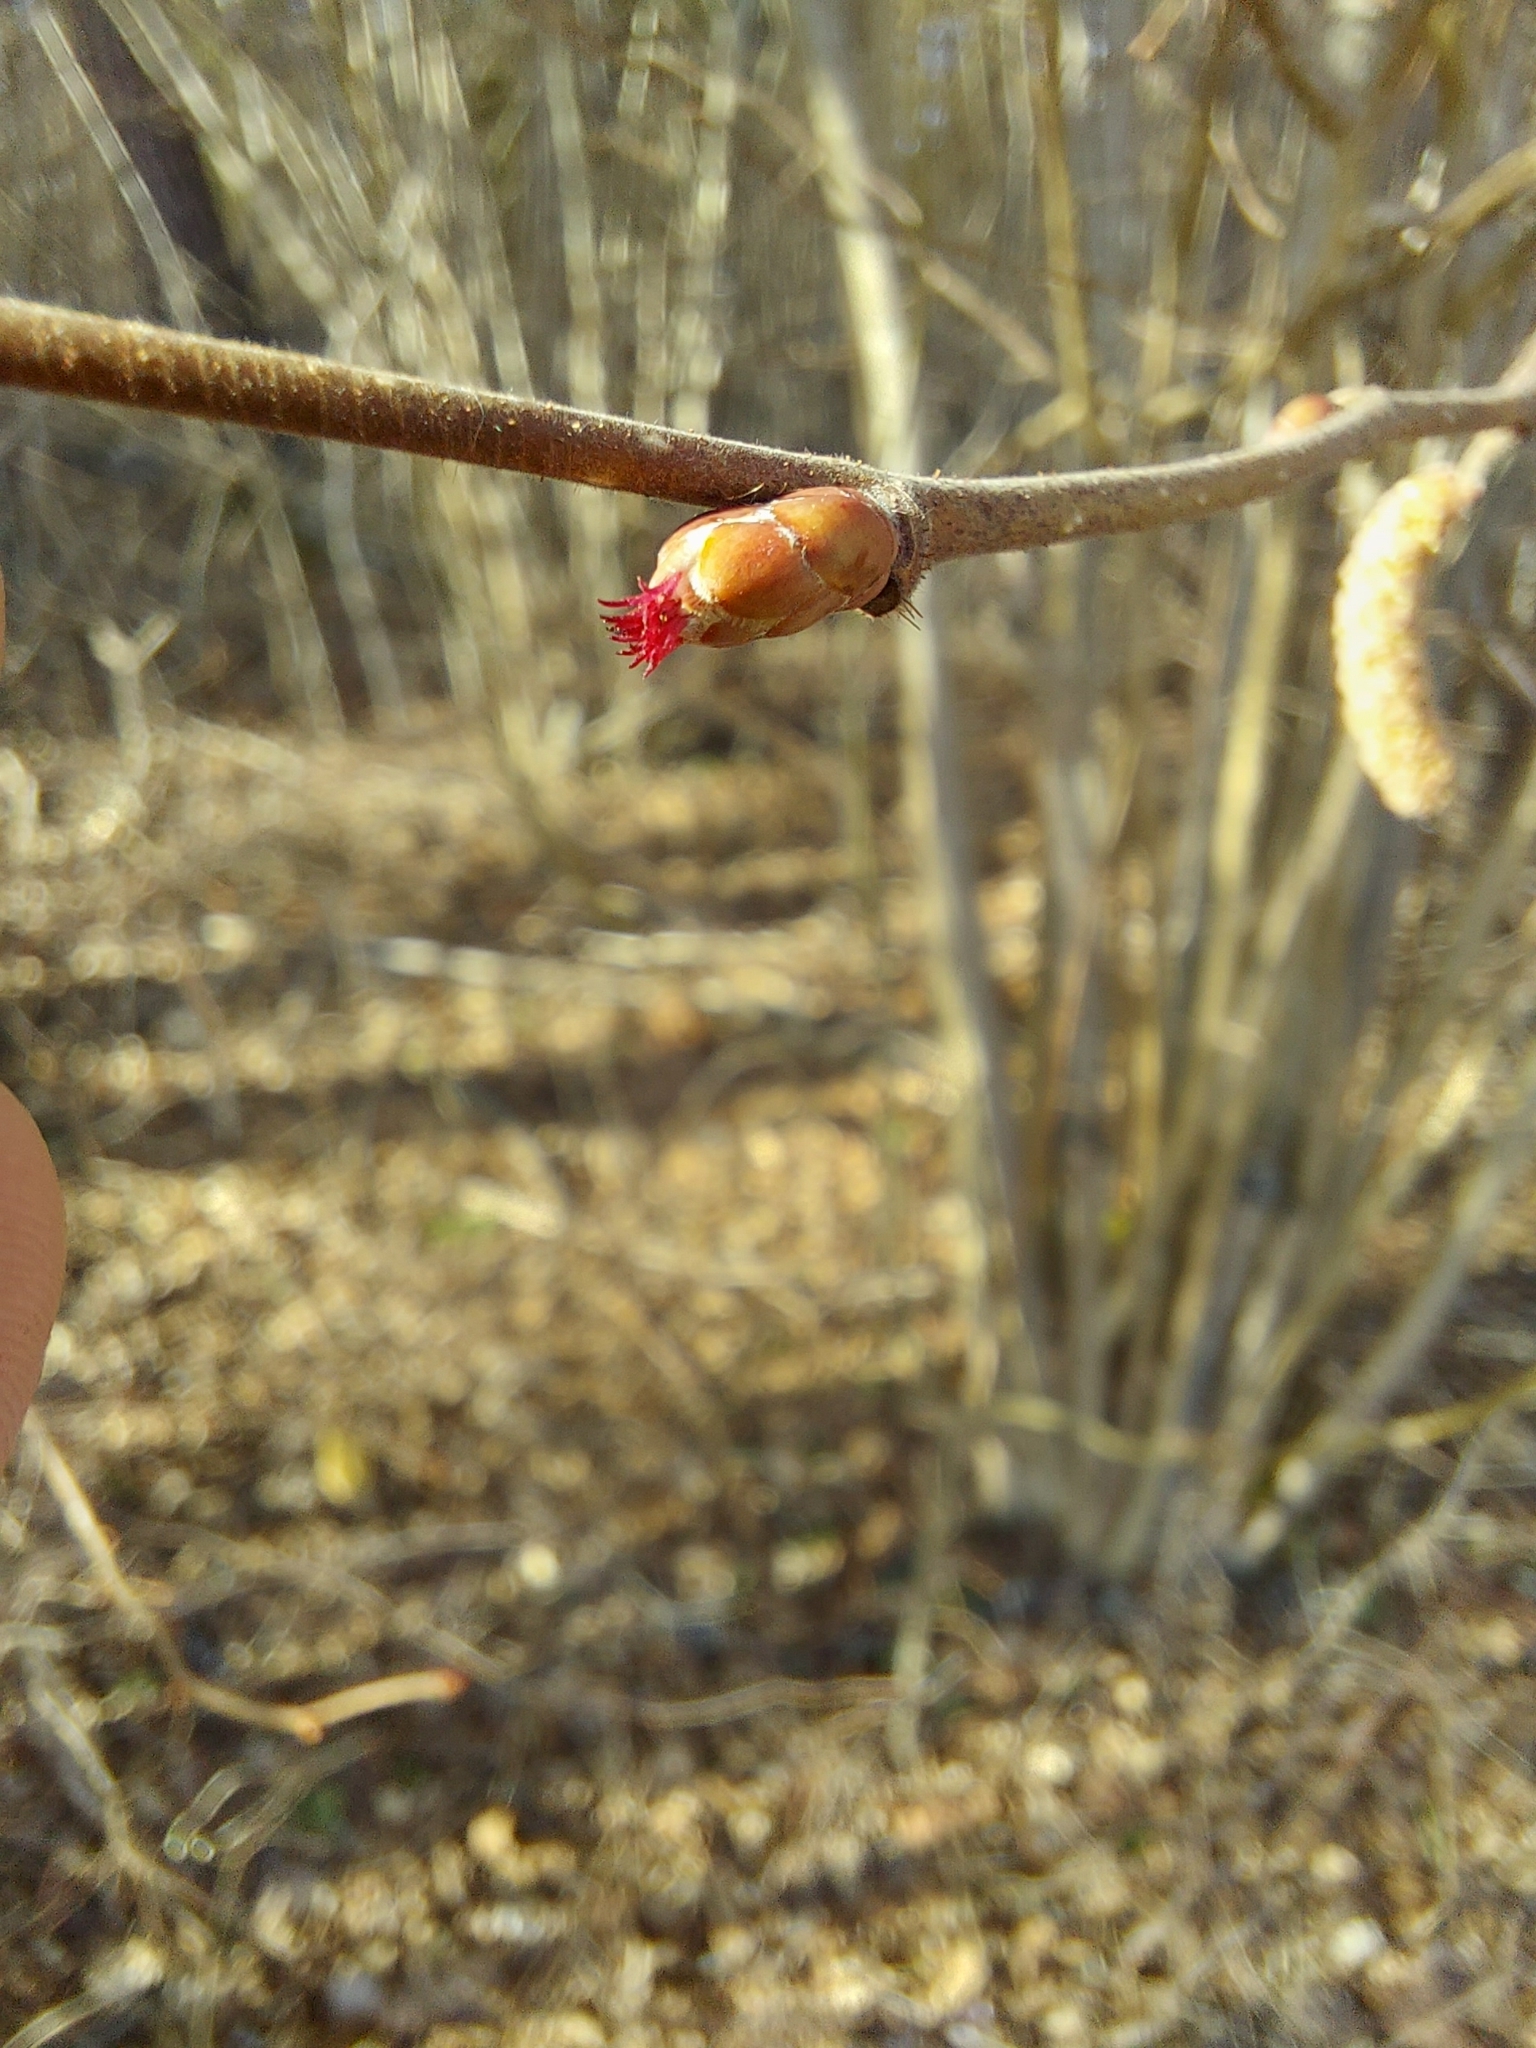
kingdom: Plantae
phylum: Tracheophyta
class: Magnoliopsida
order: Fagales
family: Betulaceae
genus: Corylus
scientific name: Corylus avellana
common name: European hazel
